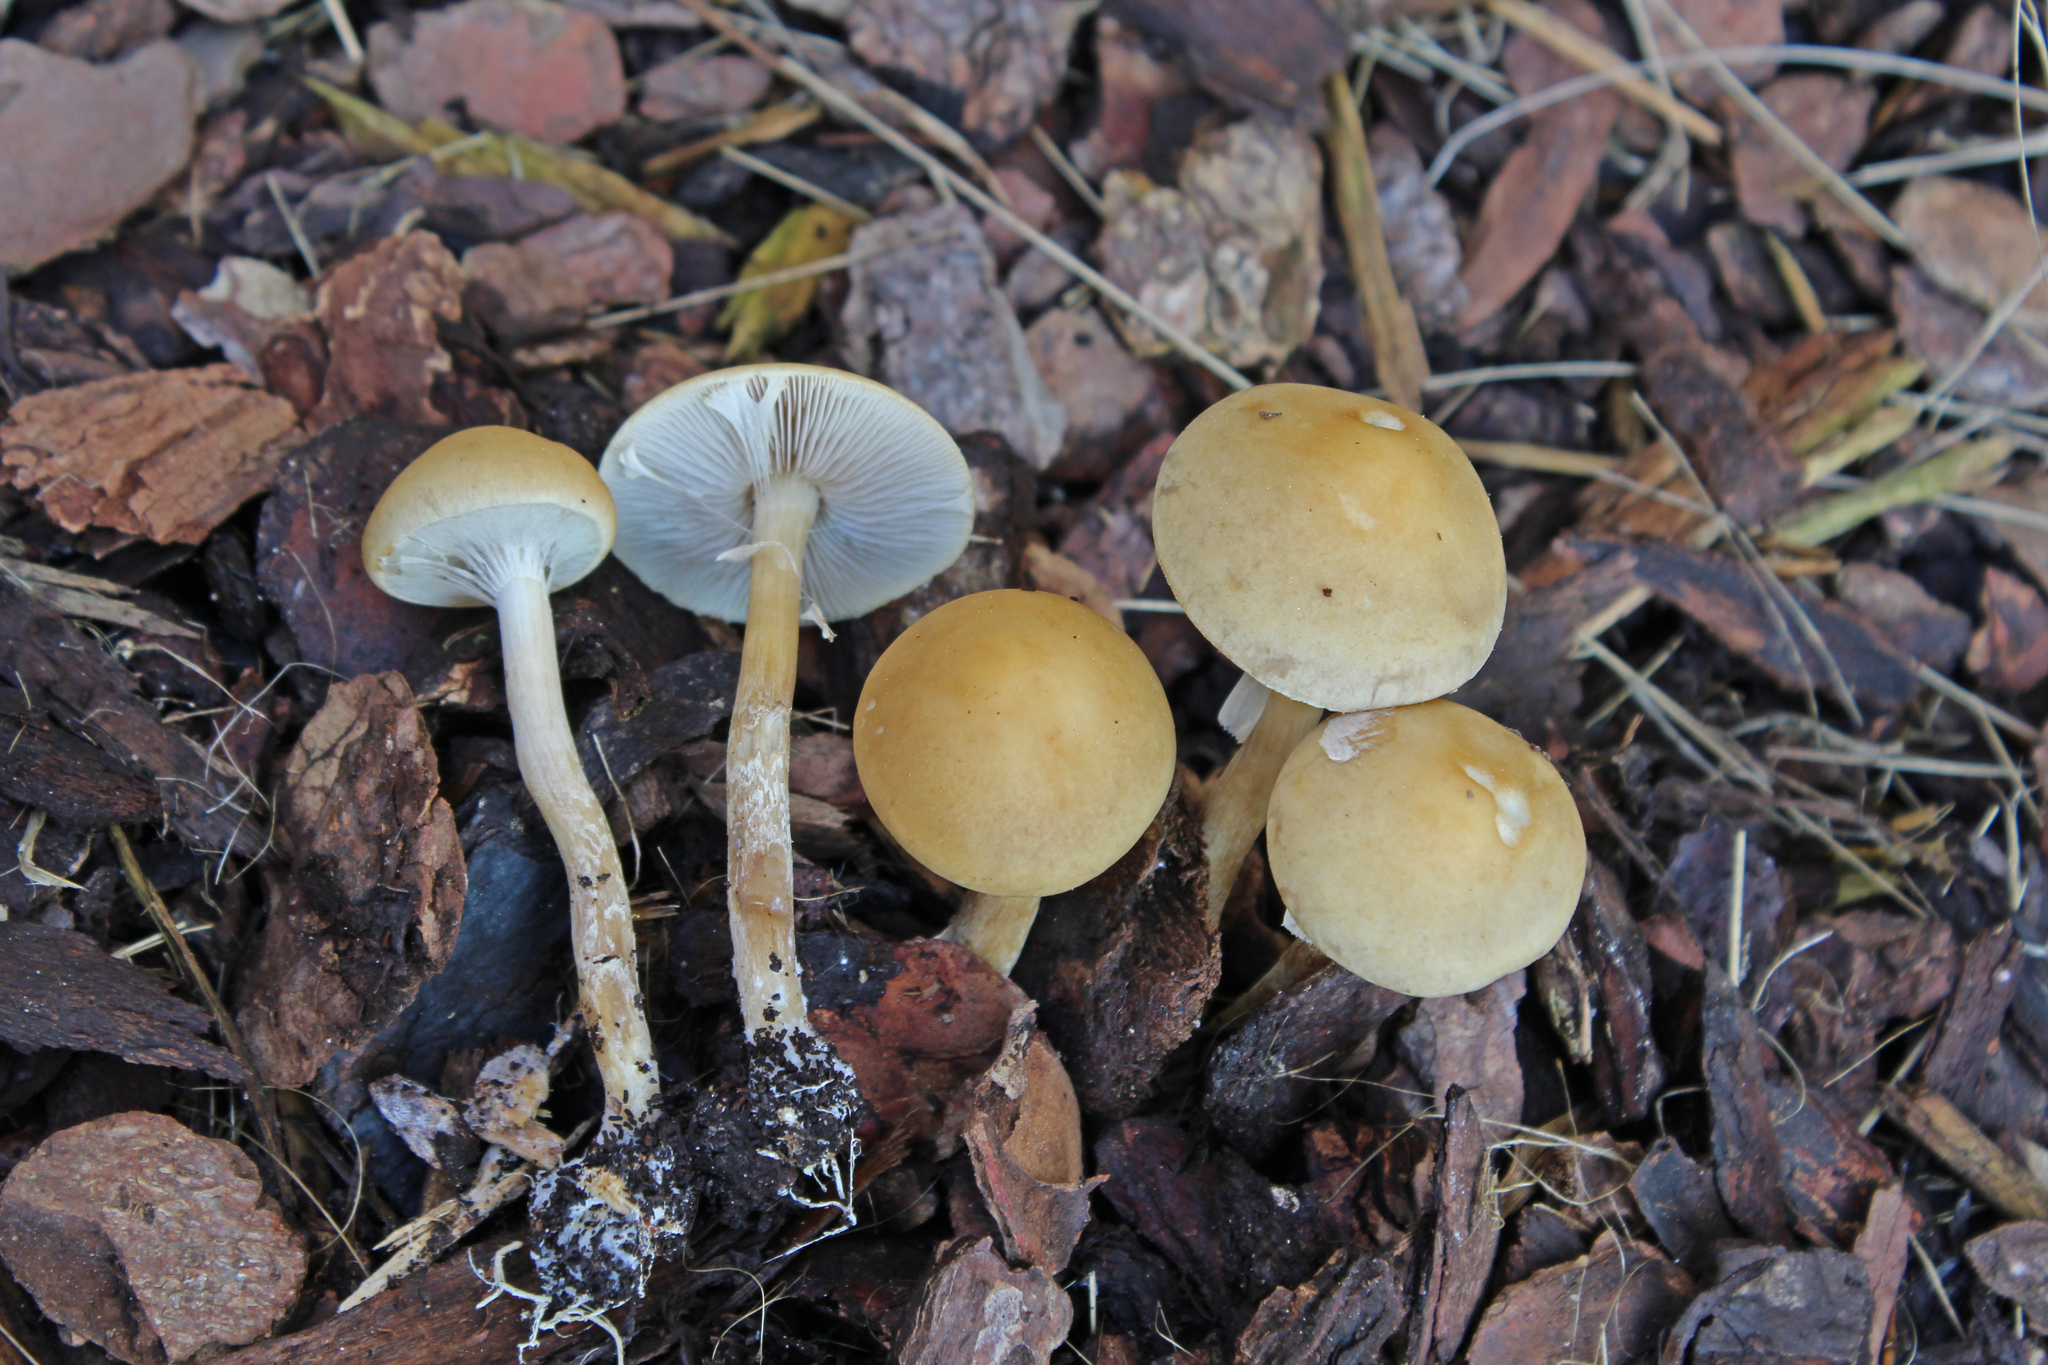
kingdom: Fungi
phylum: Basidiomycota
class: Agaricomycetes
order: Agaricales
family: Strophariaceae
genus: Agrocybe
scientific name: Agrocybe praecox
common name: Spring fieldcap
